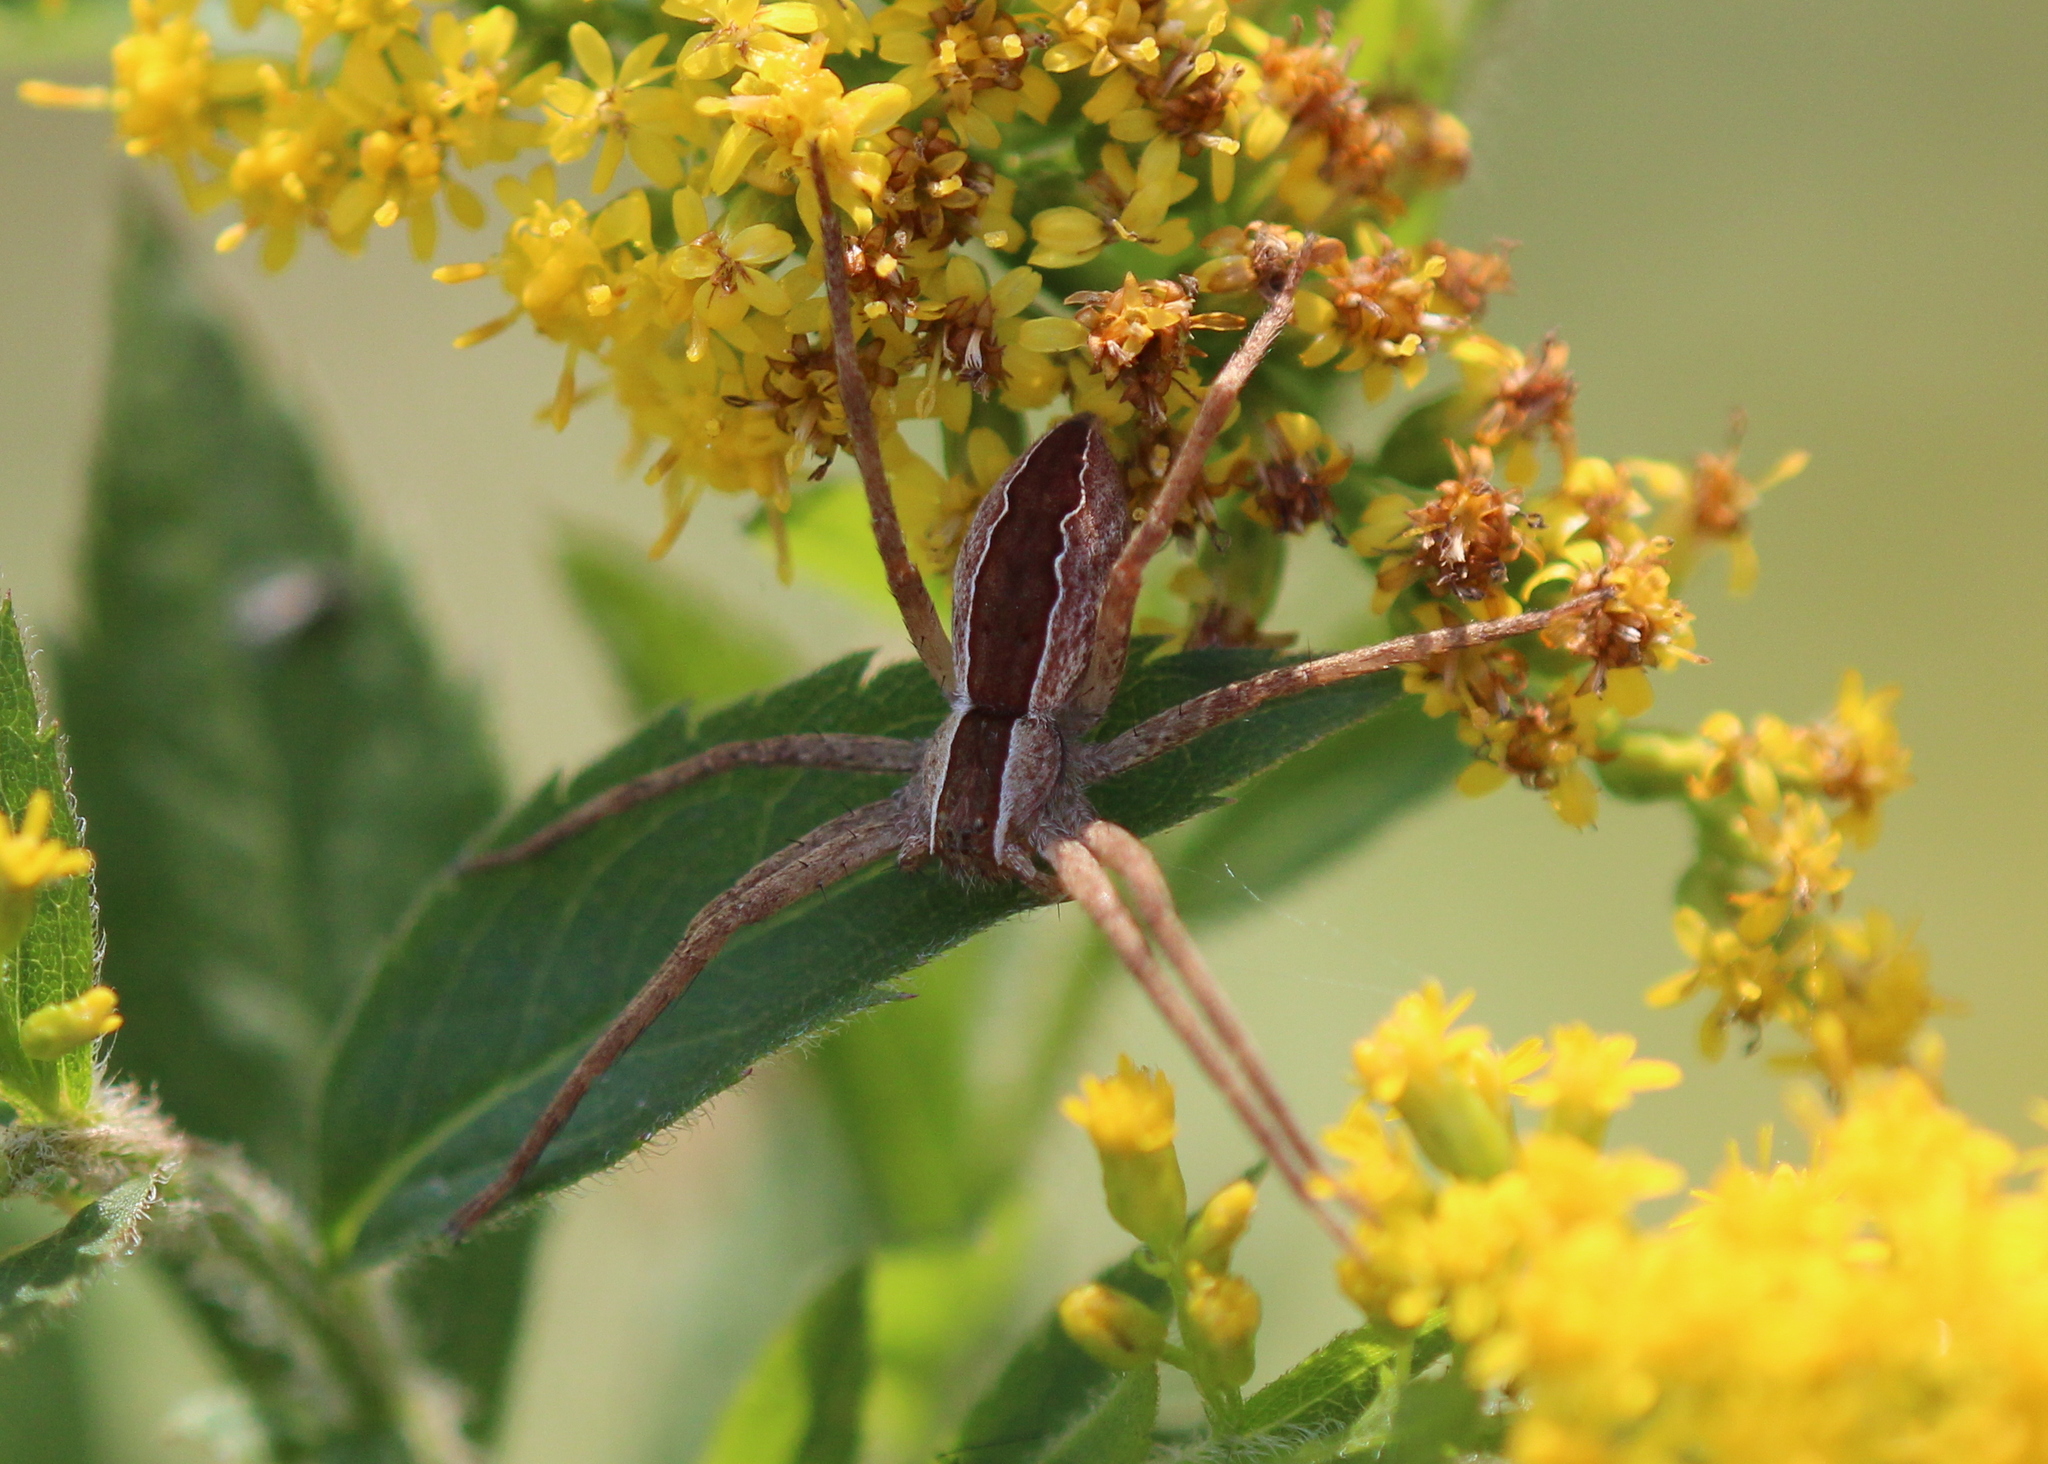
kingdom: Animalia
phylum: Arthropoda
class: Arachnida
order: Araneae
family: Pisauridae
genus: Pisaurina
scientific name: Pisaurina mira
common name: American nursery web spider
